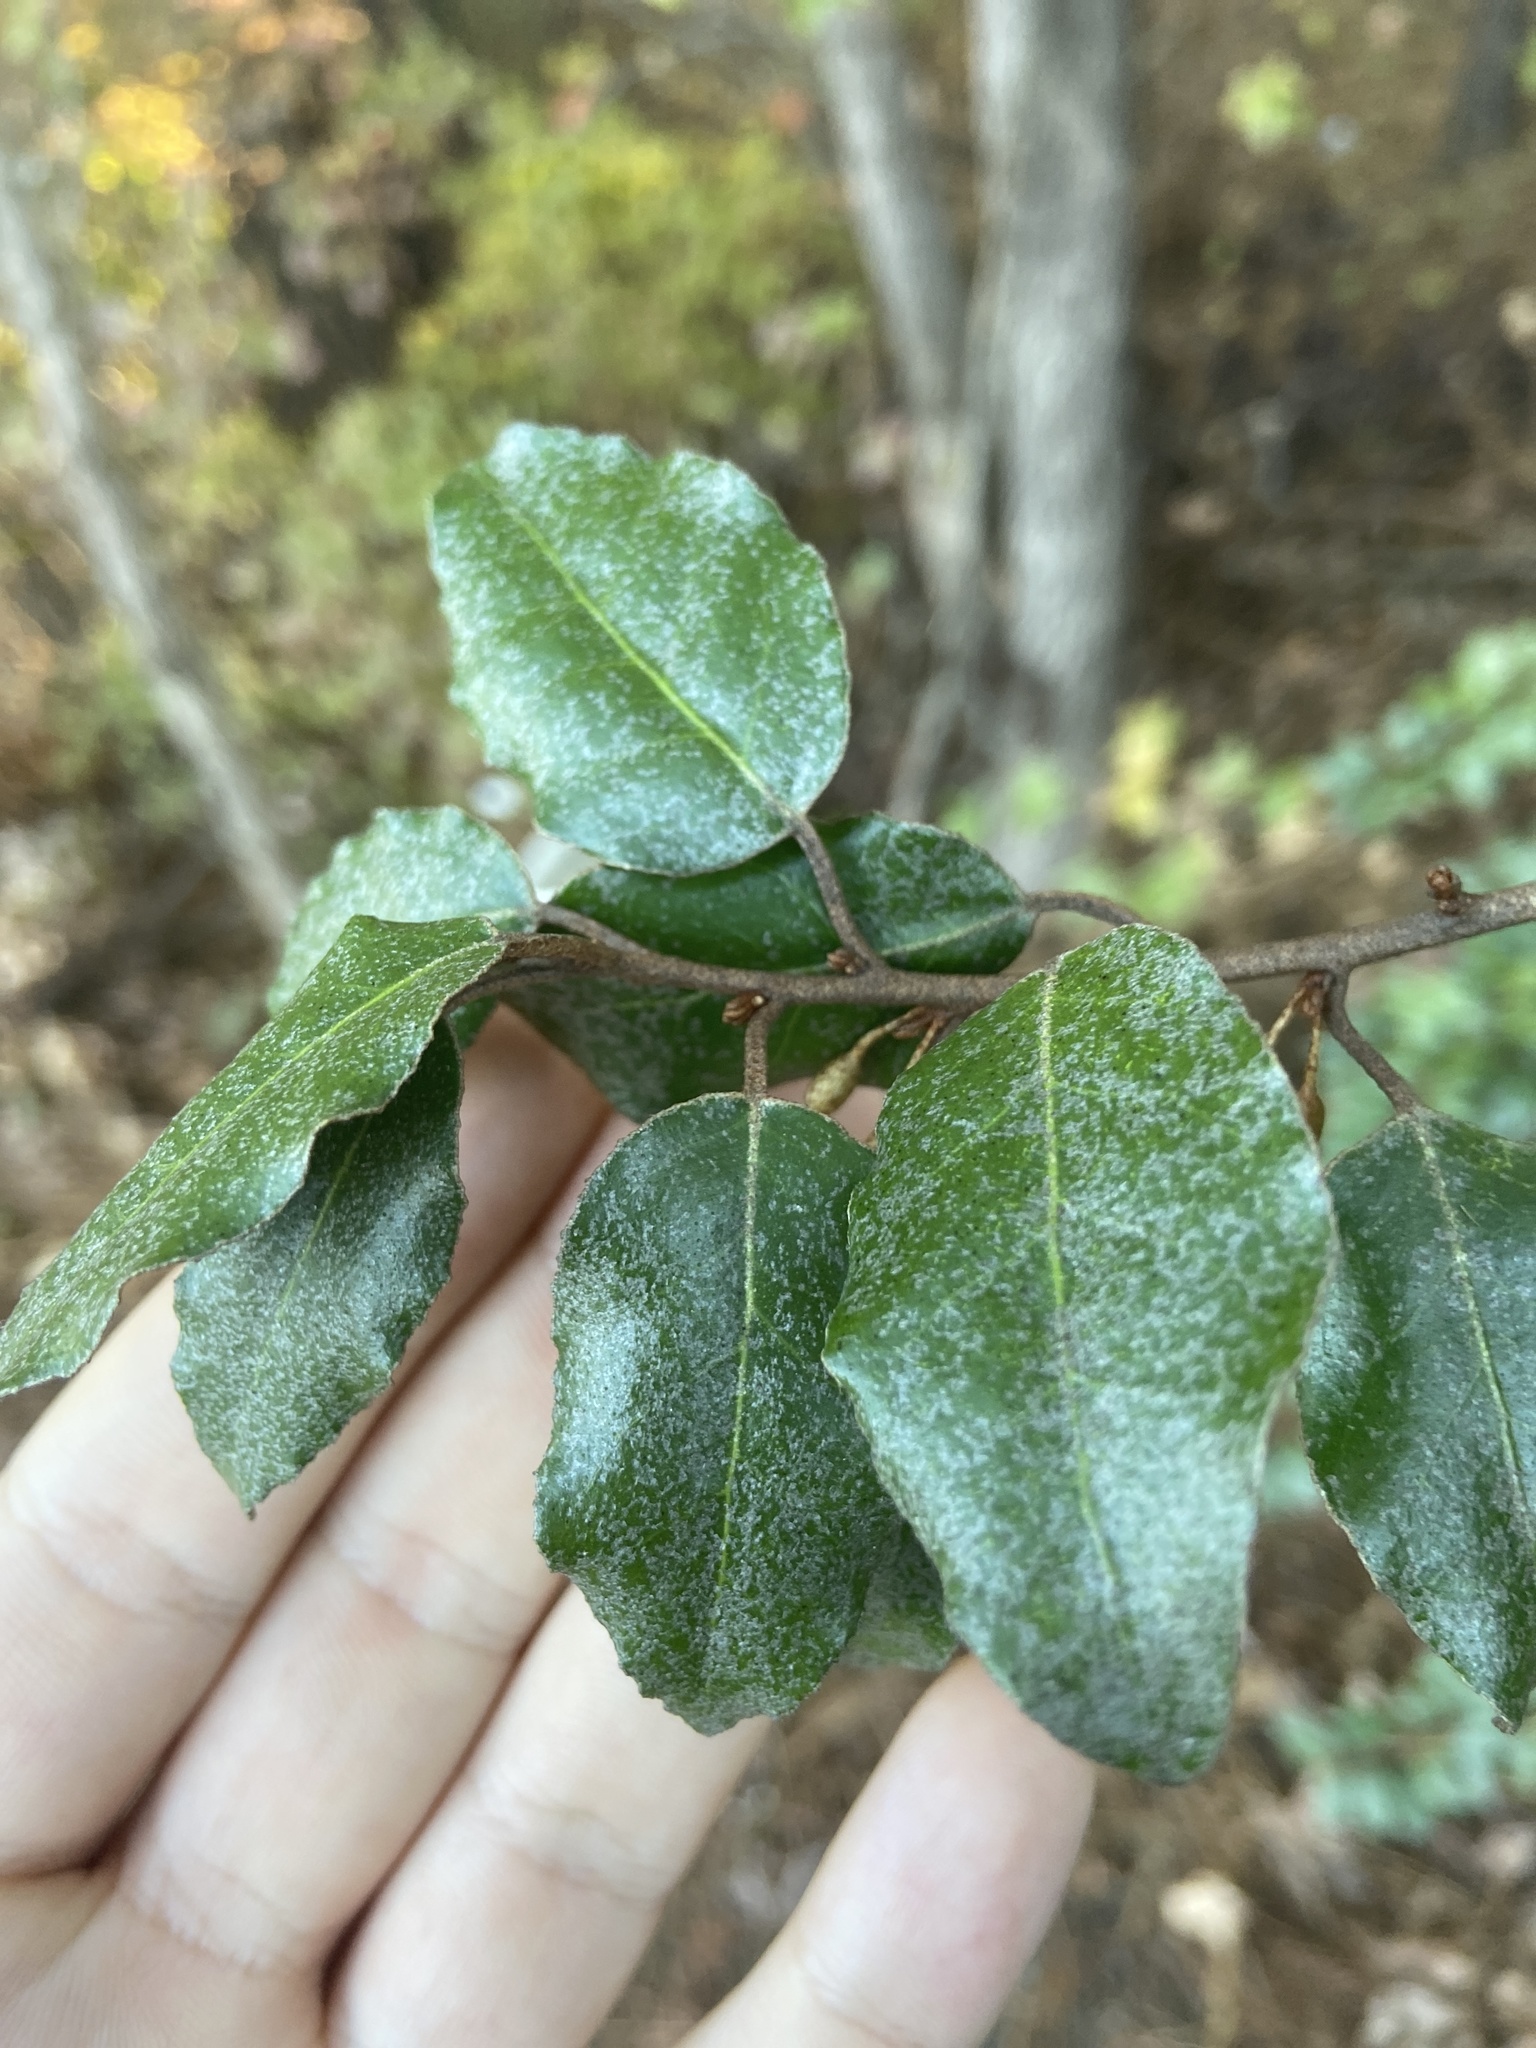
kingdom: Plantae
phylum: Tracheophyta
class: Magnoliopsida
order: Rosales
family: Elaeagnaceae
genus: Elaeagnus
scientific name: Elaeagnus pungens
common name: Spiny oleaster
